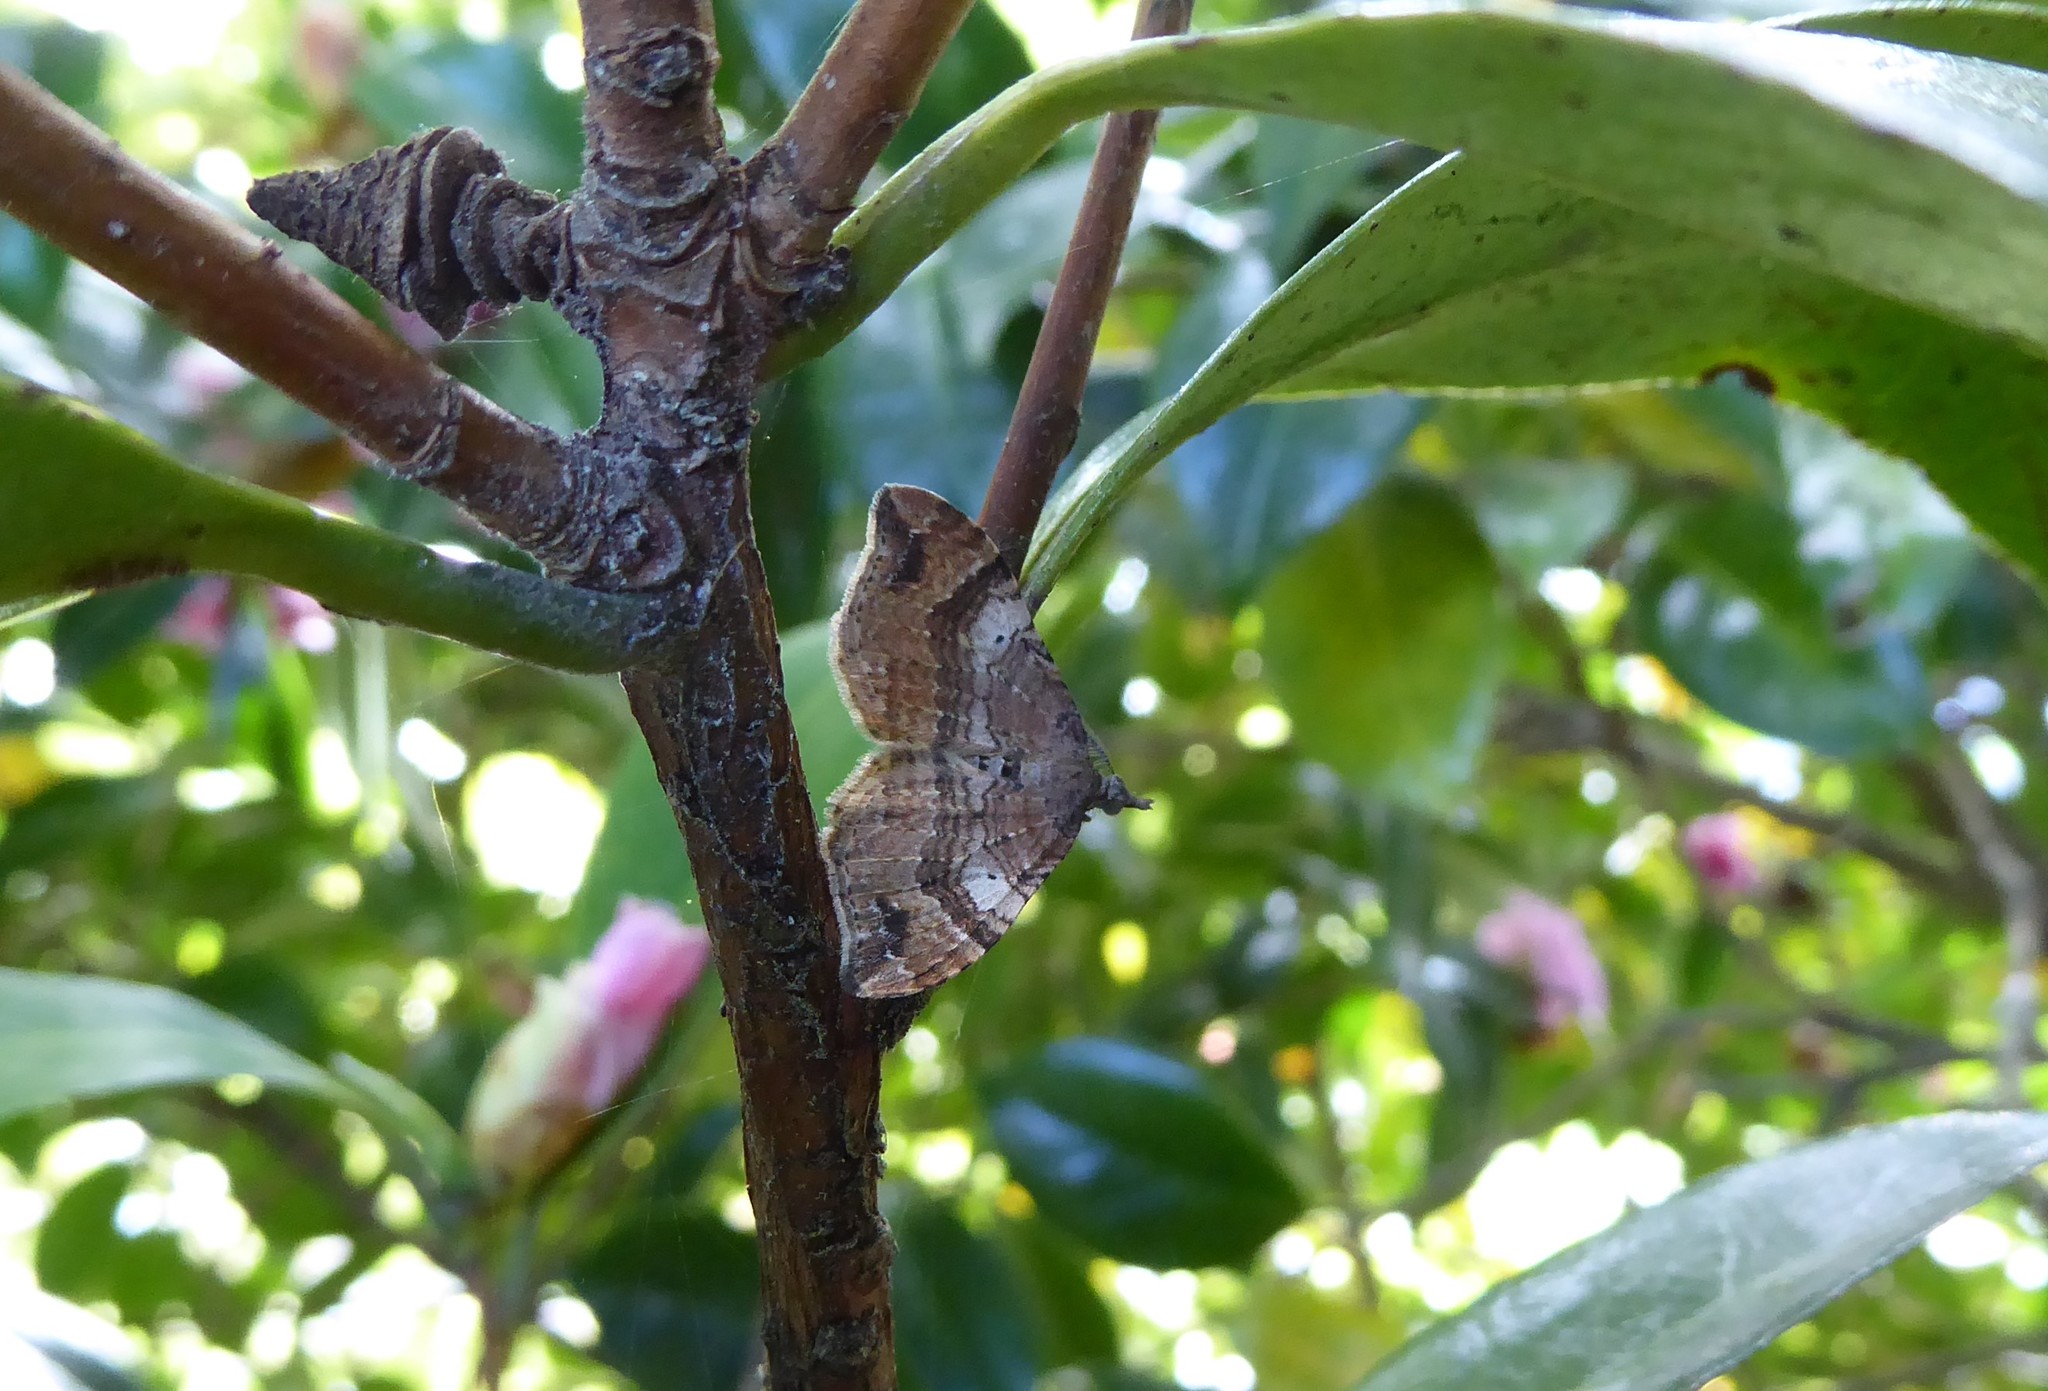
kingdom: Animalia
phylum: Arthropoda
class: Insecta
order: Lepidoptera
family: Geometridae
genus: Homodotis
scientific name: Homodotis megaspilata
